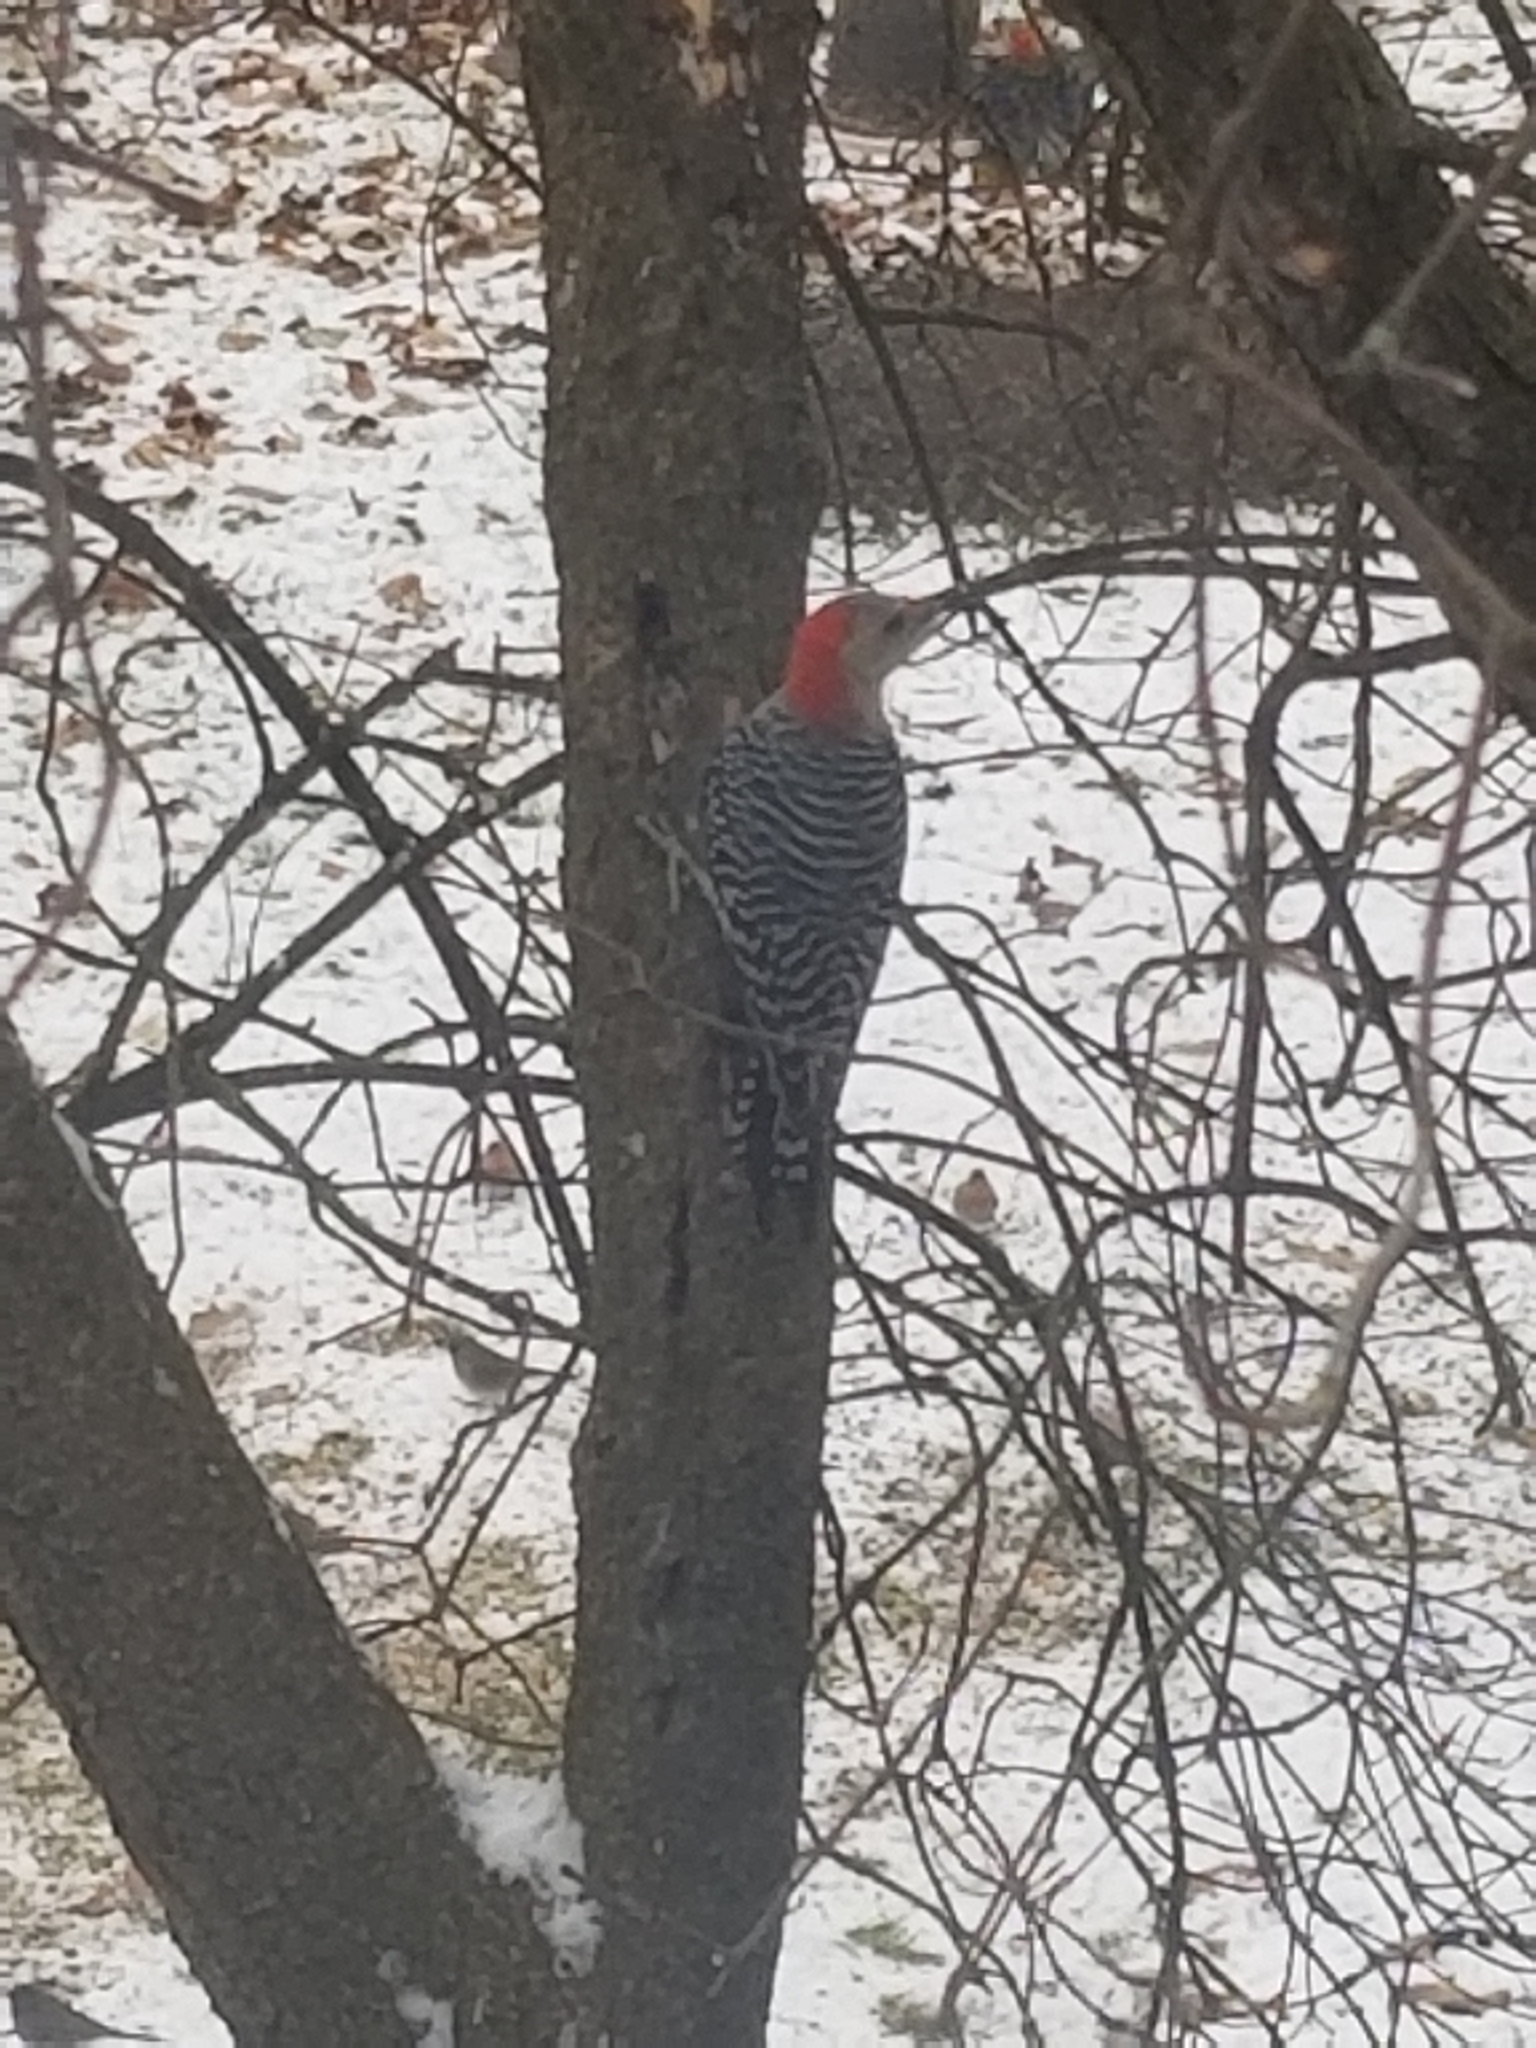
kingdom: Animalia
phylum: Chordata
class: Aves
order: Piciformes
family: Picidae
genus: Melanerpes
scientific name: Melanerpes carolinus
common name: Red-bellied woodpecker
